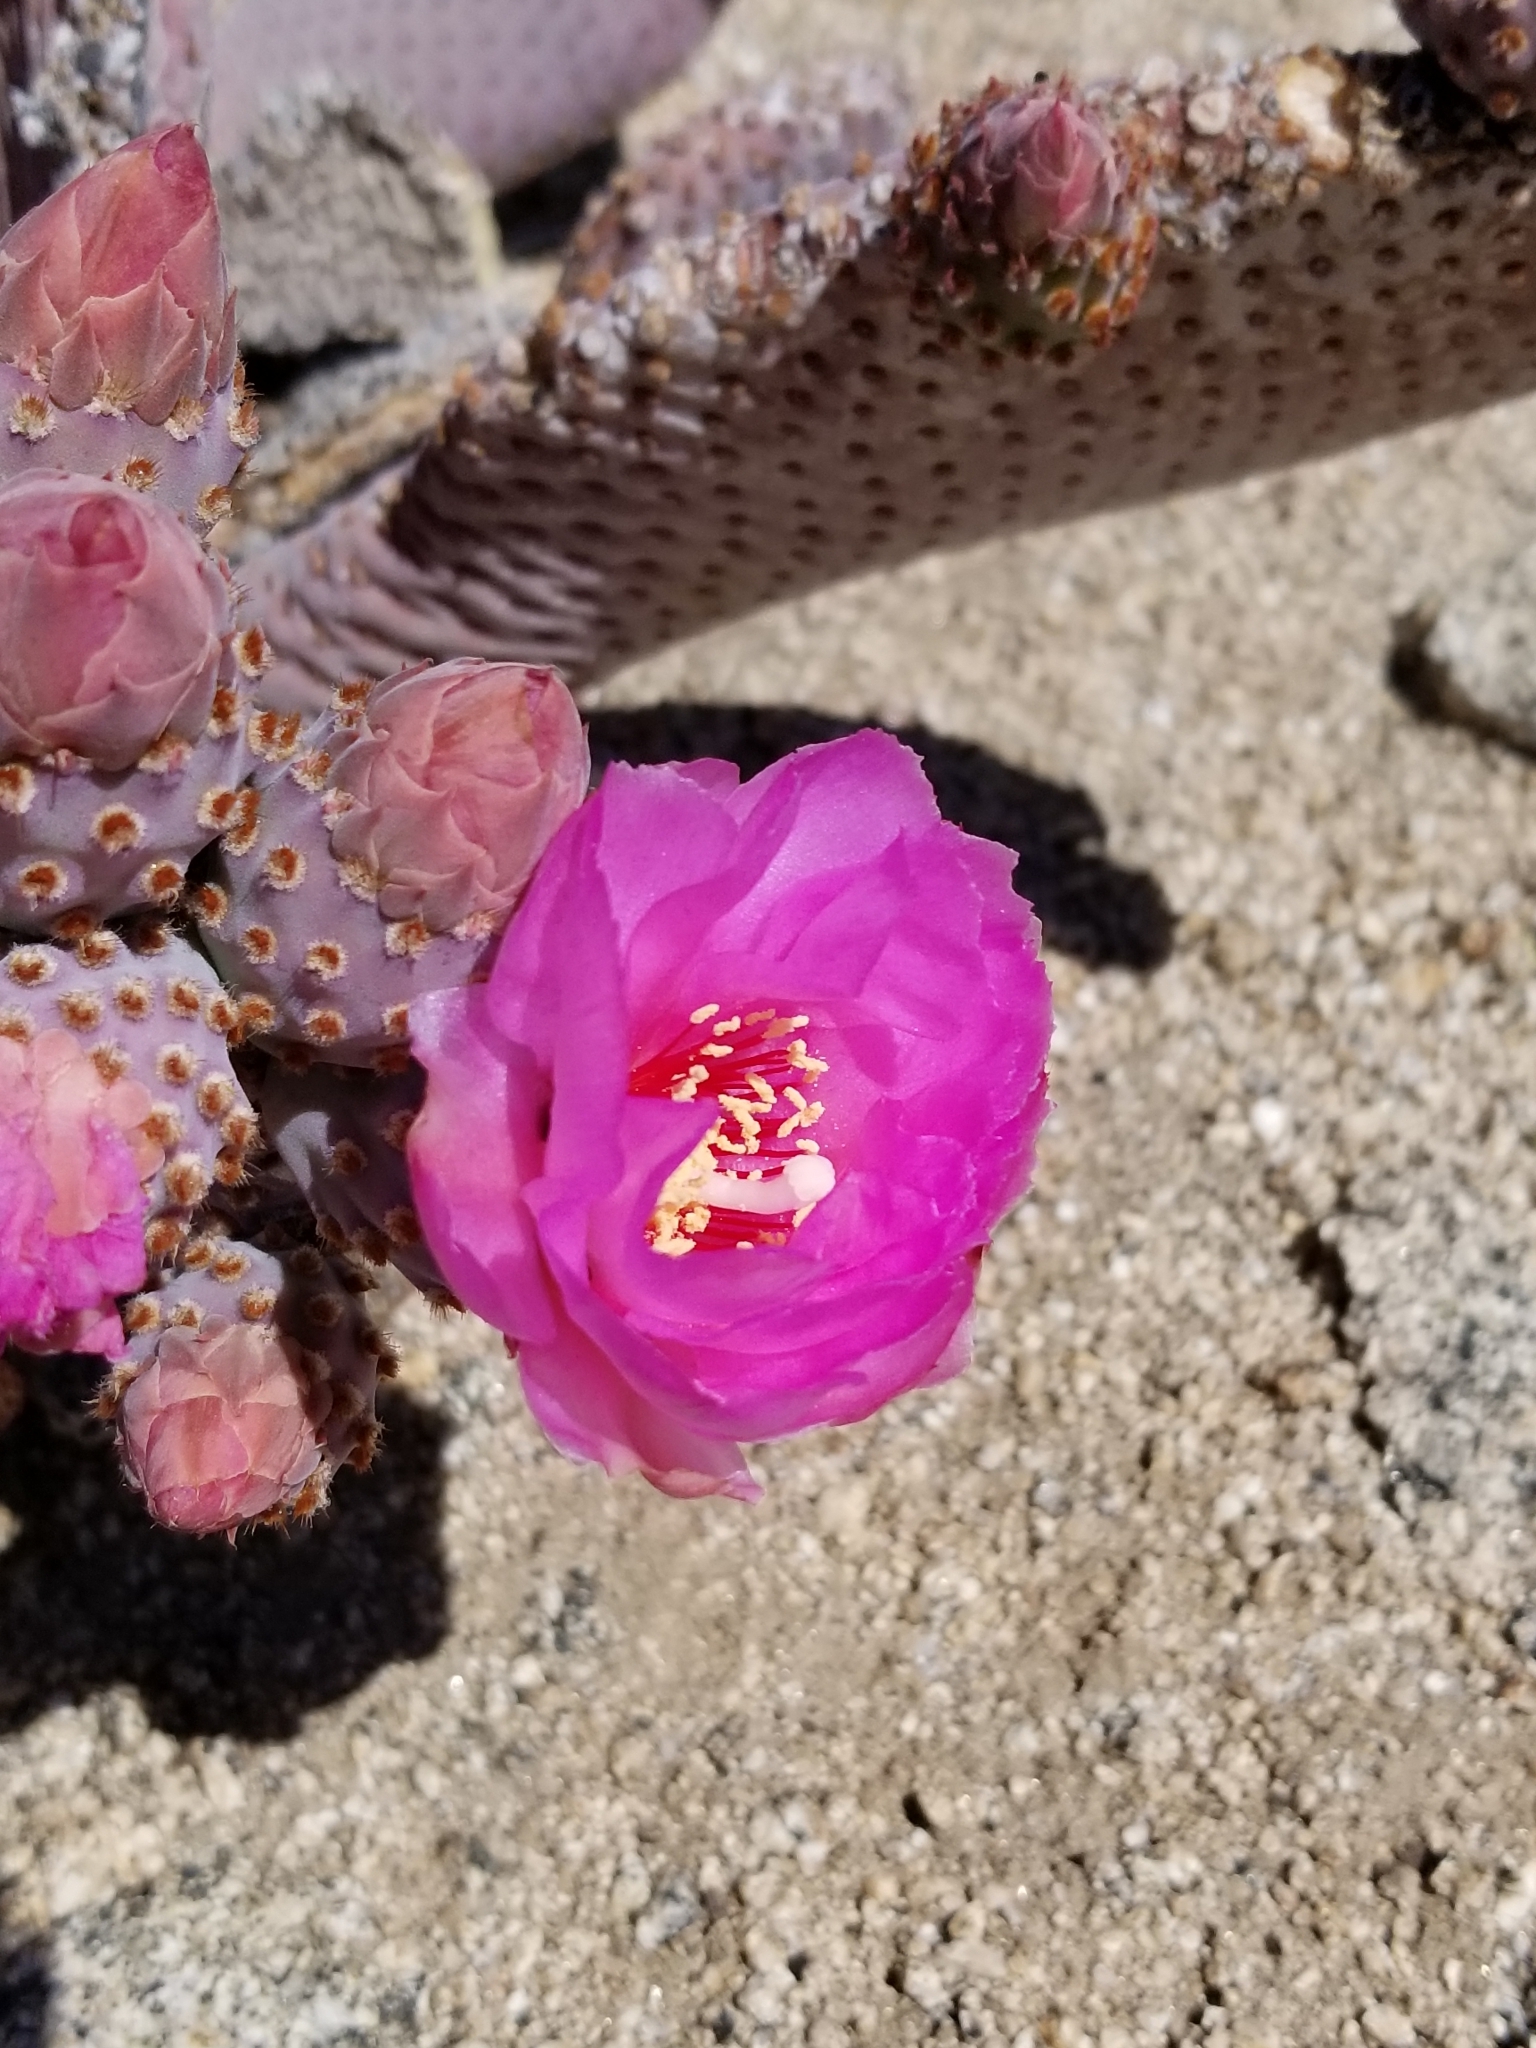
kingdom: Plantae
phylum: Tracheophyta
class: Magnoliopsida
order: Caryophyllales
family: Cactaceae
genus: Opuntia
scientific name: Opuntia basilaris
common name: Beavertail prickly-pear
